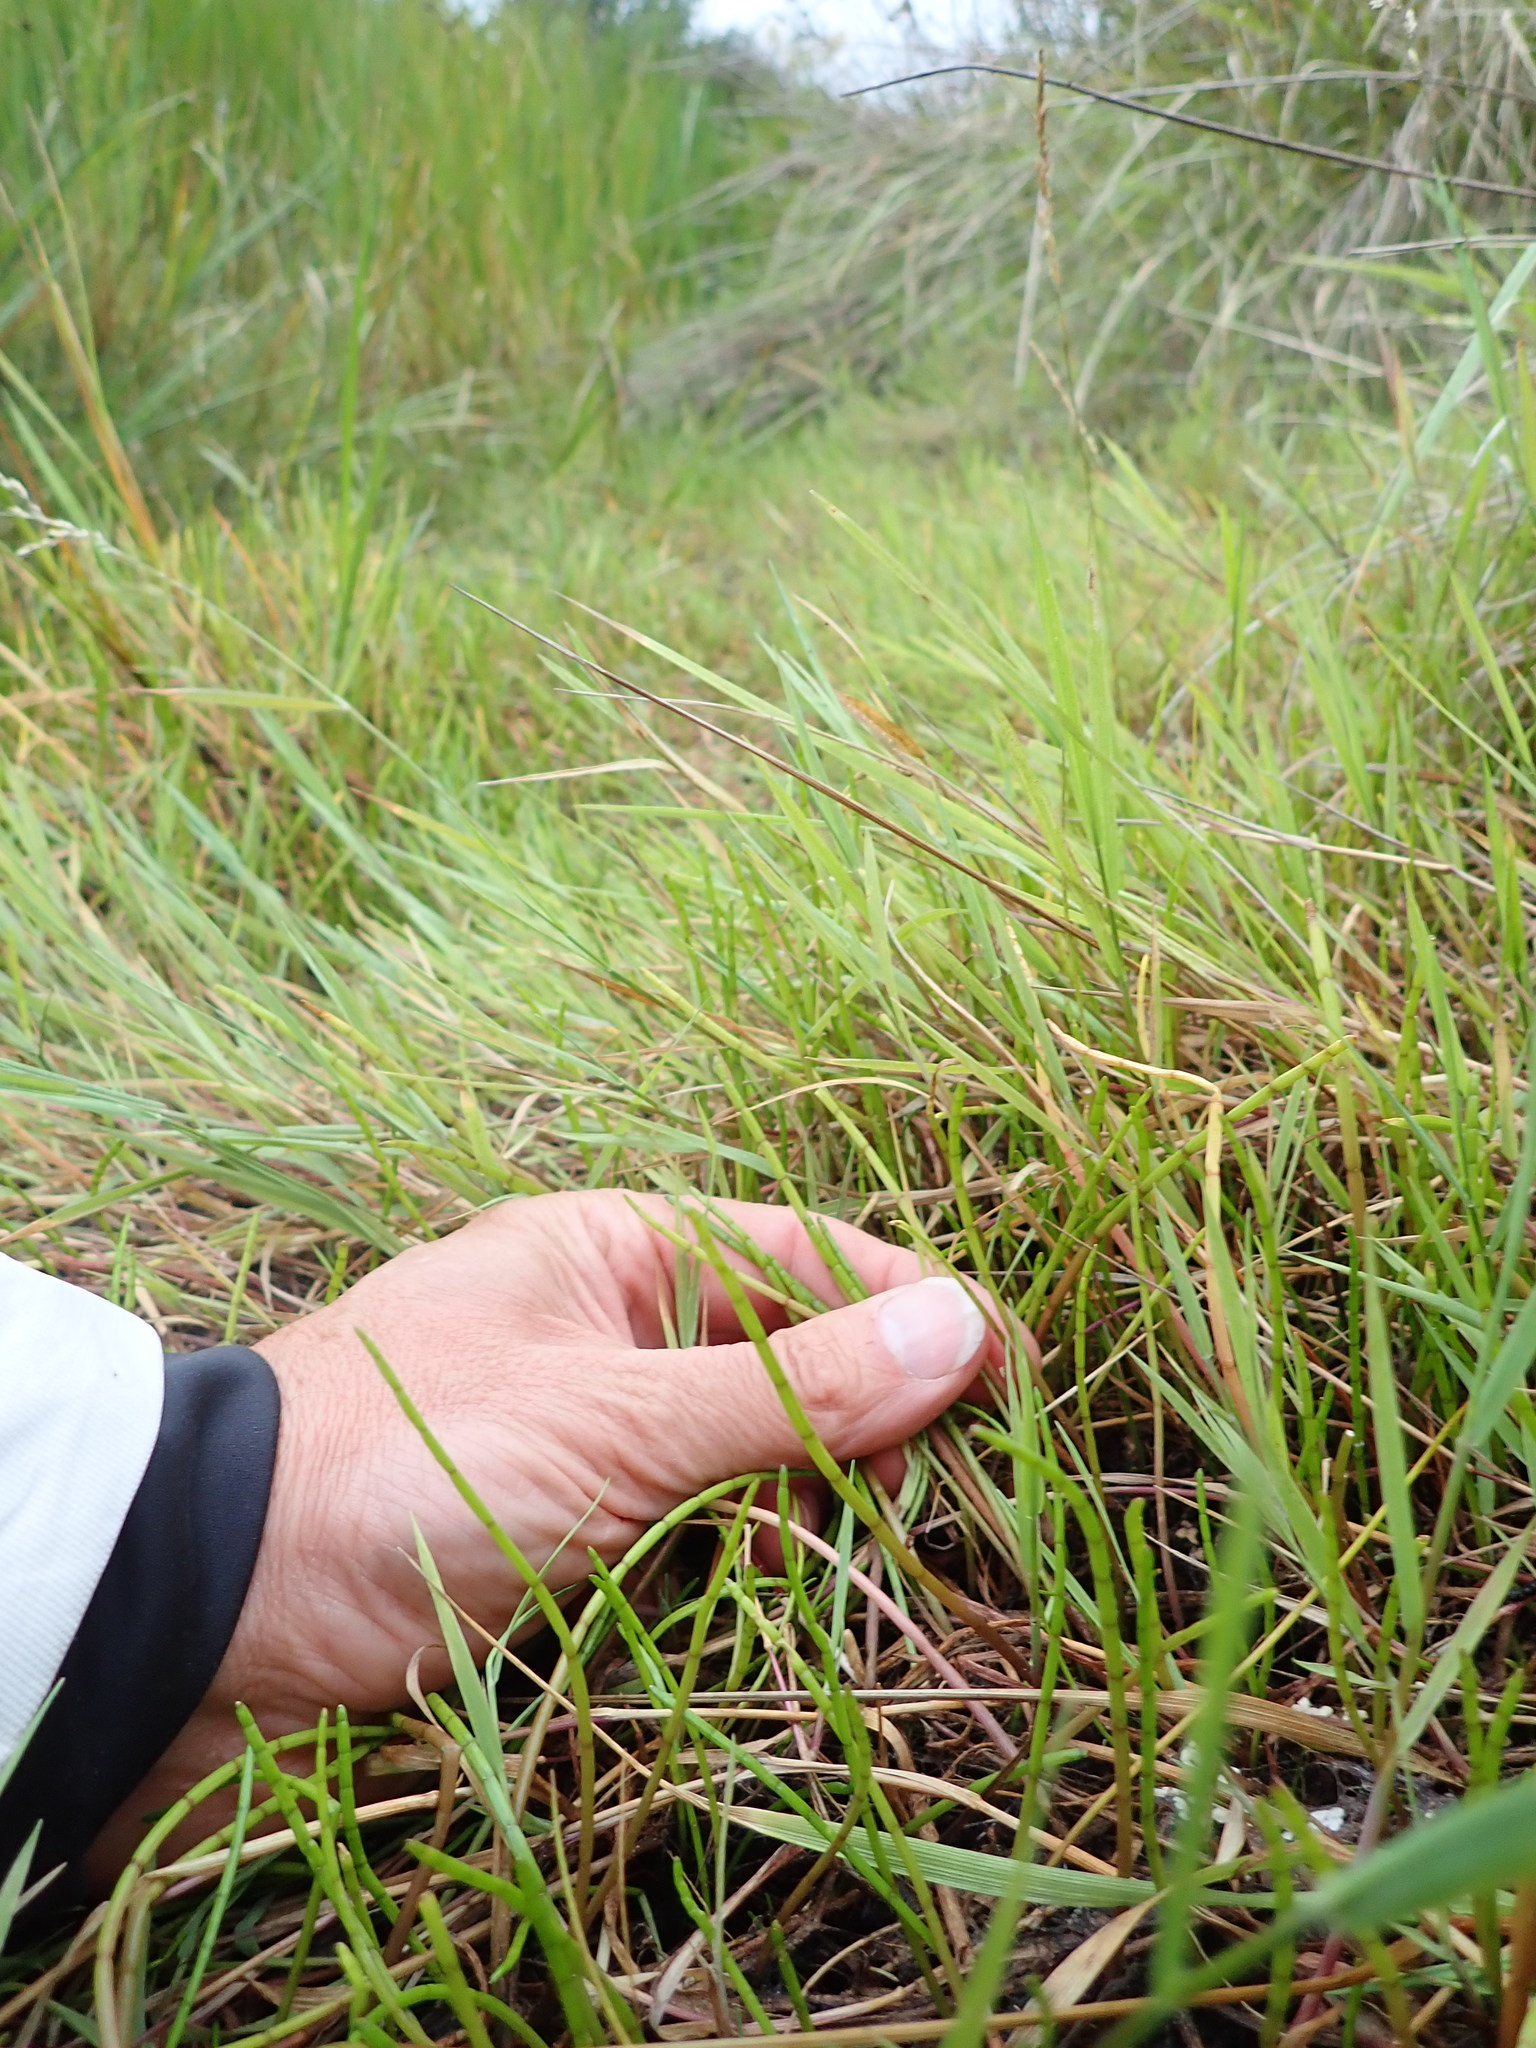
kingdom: Plantae
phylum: Tracheophyta
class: Magnoliopsida
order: Apiales
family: Apiaceae
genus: Lilaeopsis
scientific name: Lilaeopsis novae-zelandiae
